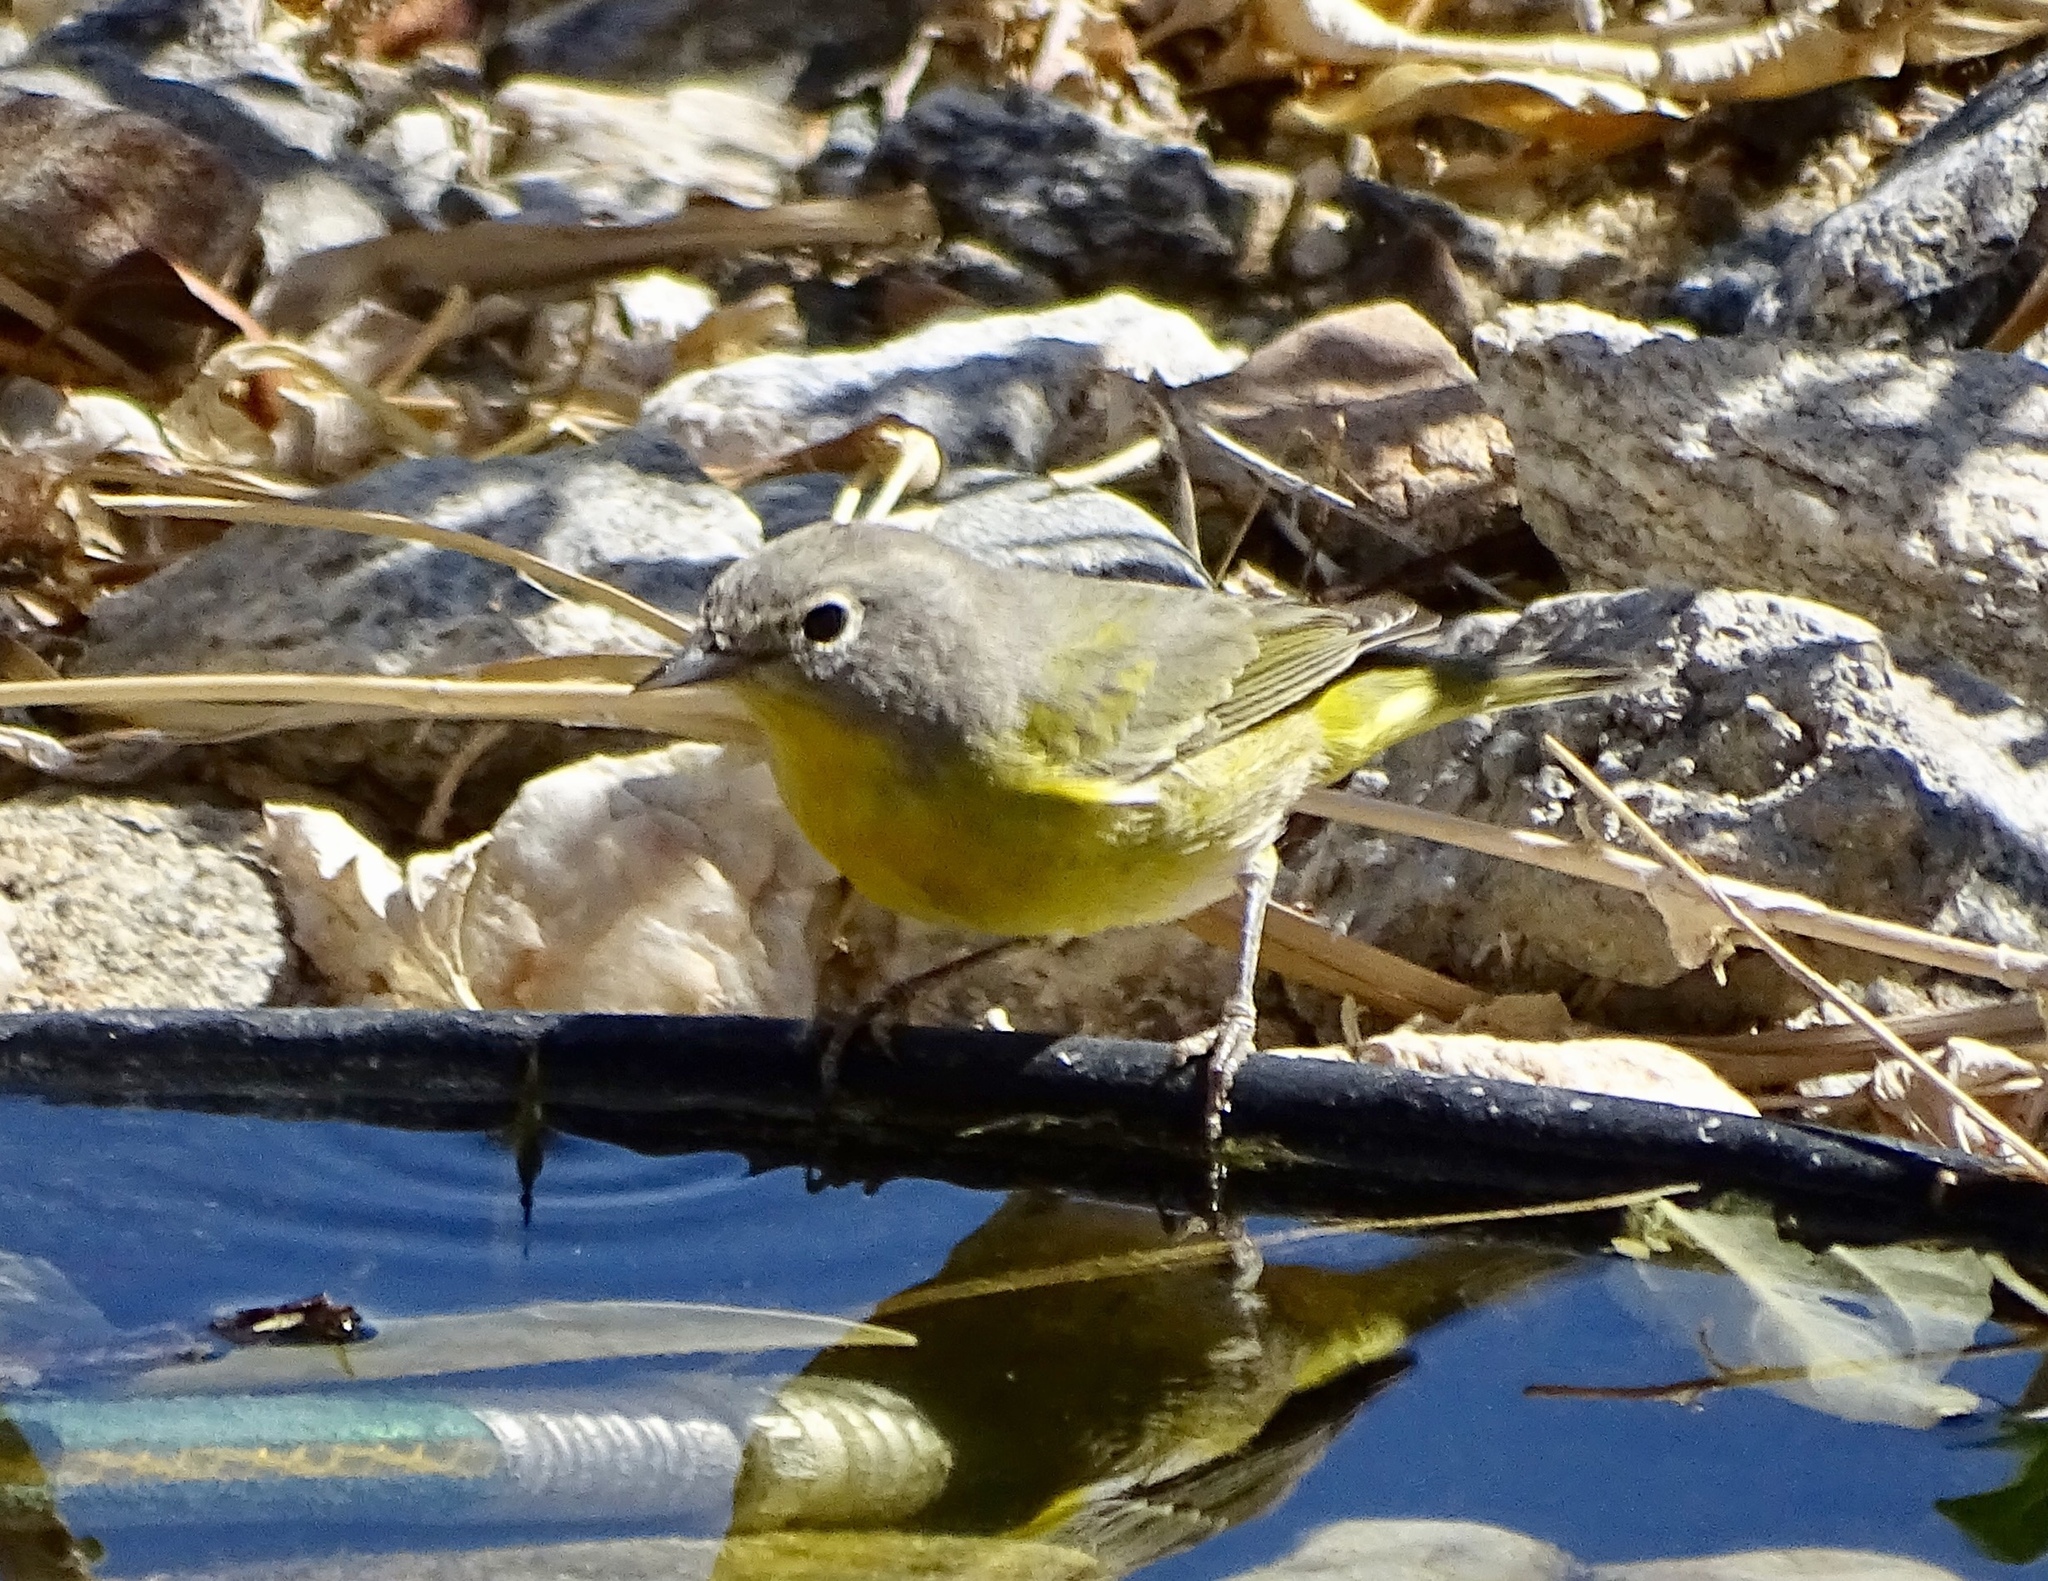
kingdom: Animalia
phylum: Chordata
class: Aves
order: Passeriformes
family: Parulidae
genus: Leiothlypis
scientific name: Leiothlypis ruficapilla
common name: Nashville warbler
